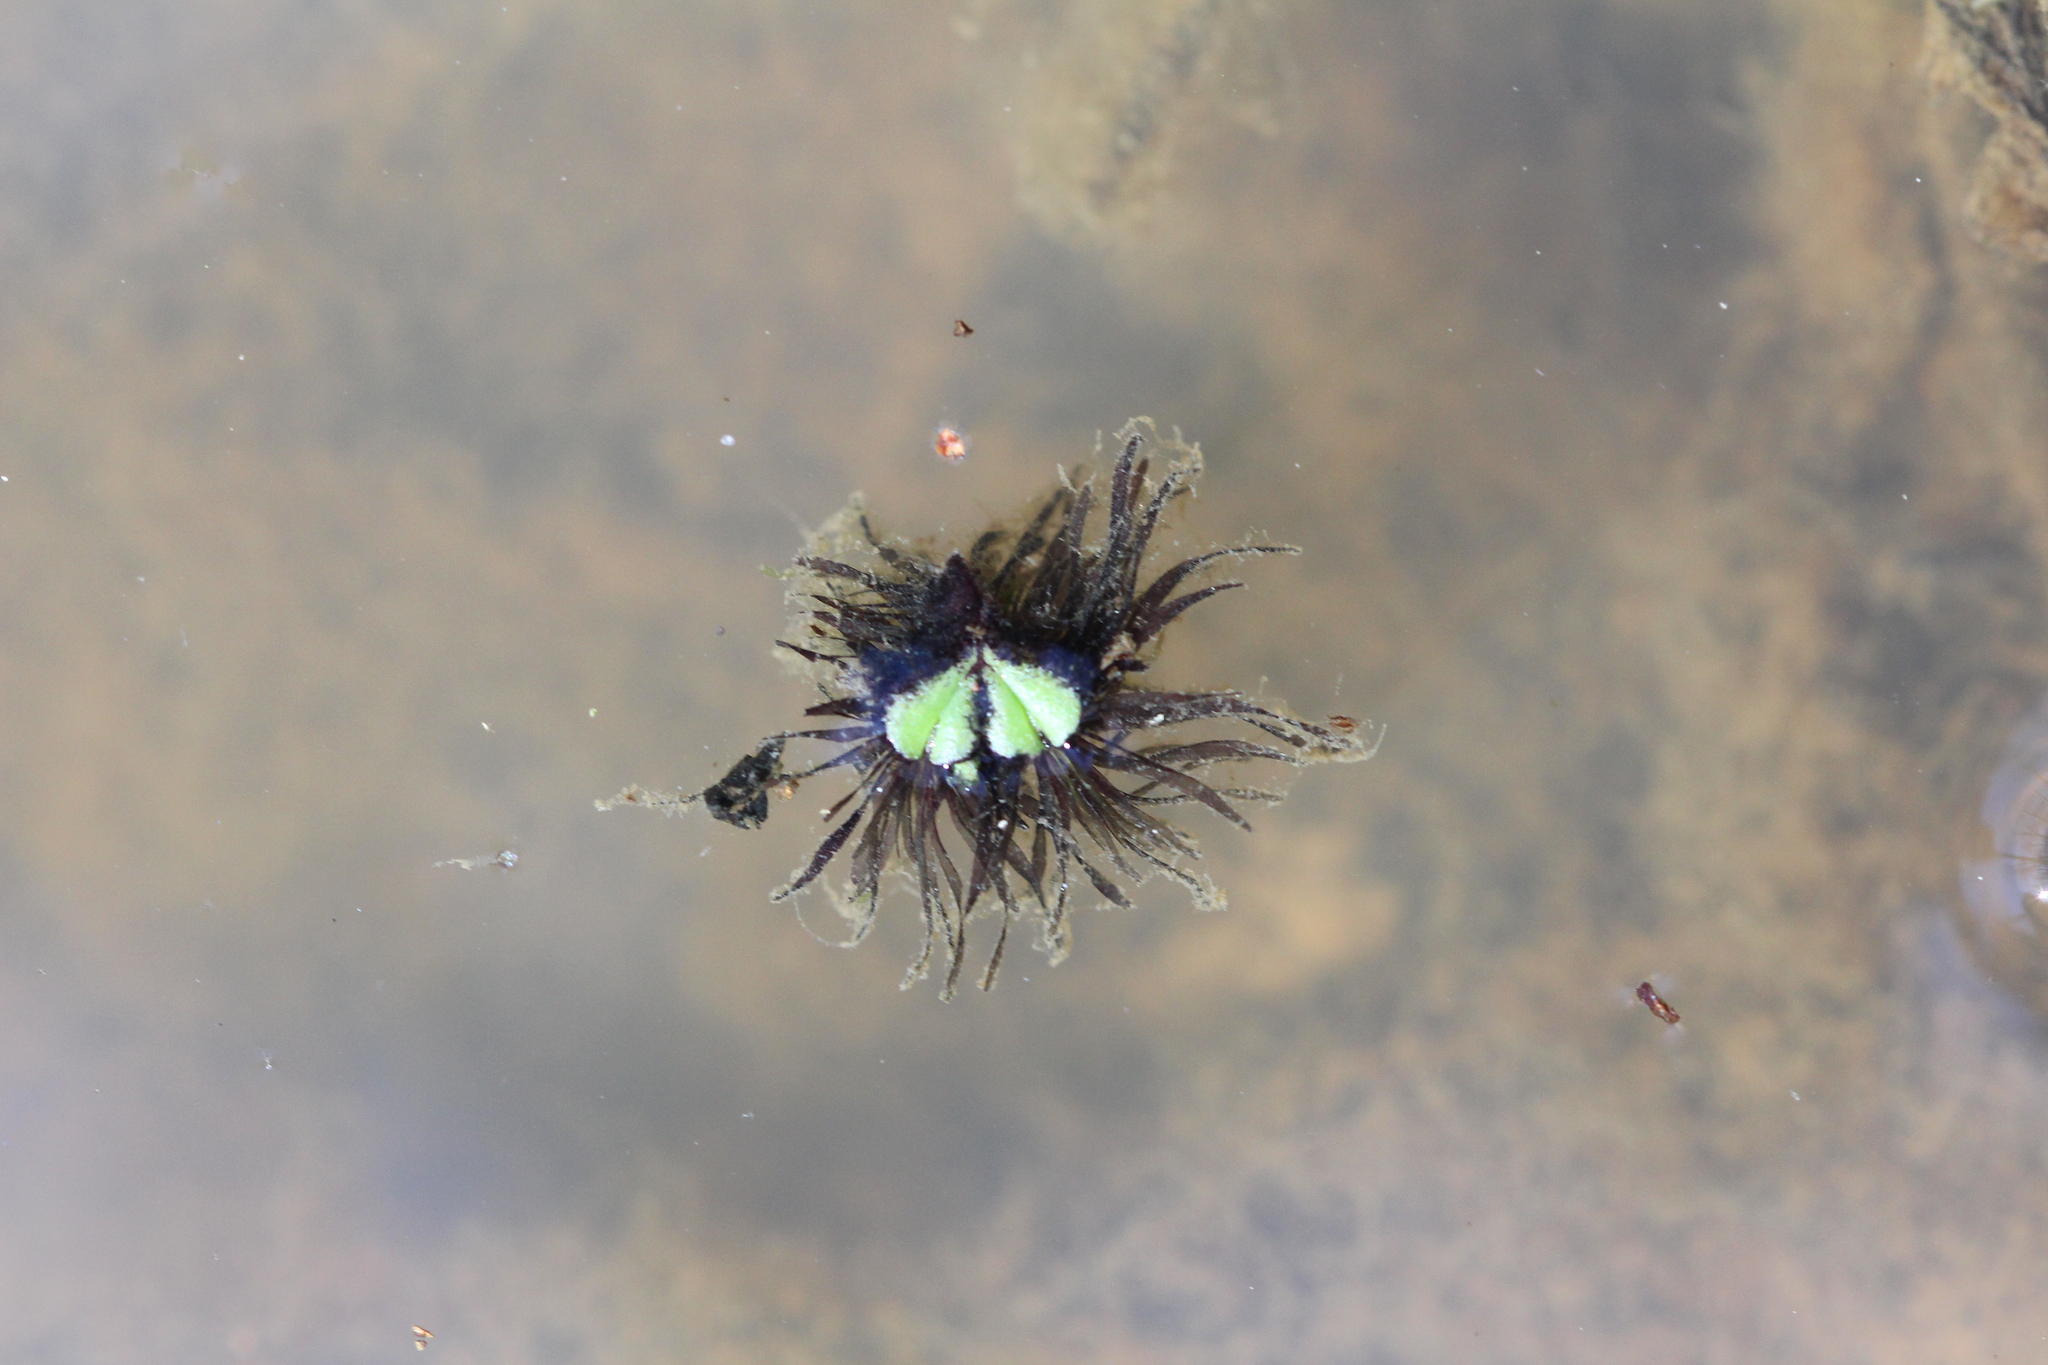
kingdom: Plantae
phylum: Marchantiophyta
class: Marchantiopsida
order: Marchantiales
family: Ricciaceae
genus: Ricciocarpos
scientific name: Ricciocarpos natans
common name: Purple-fringed liverwort
